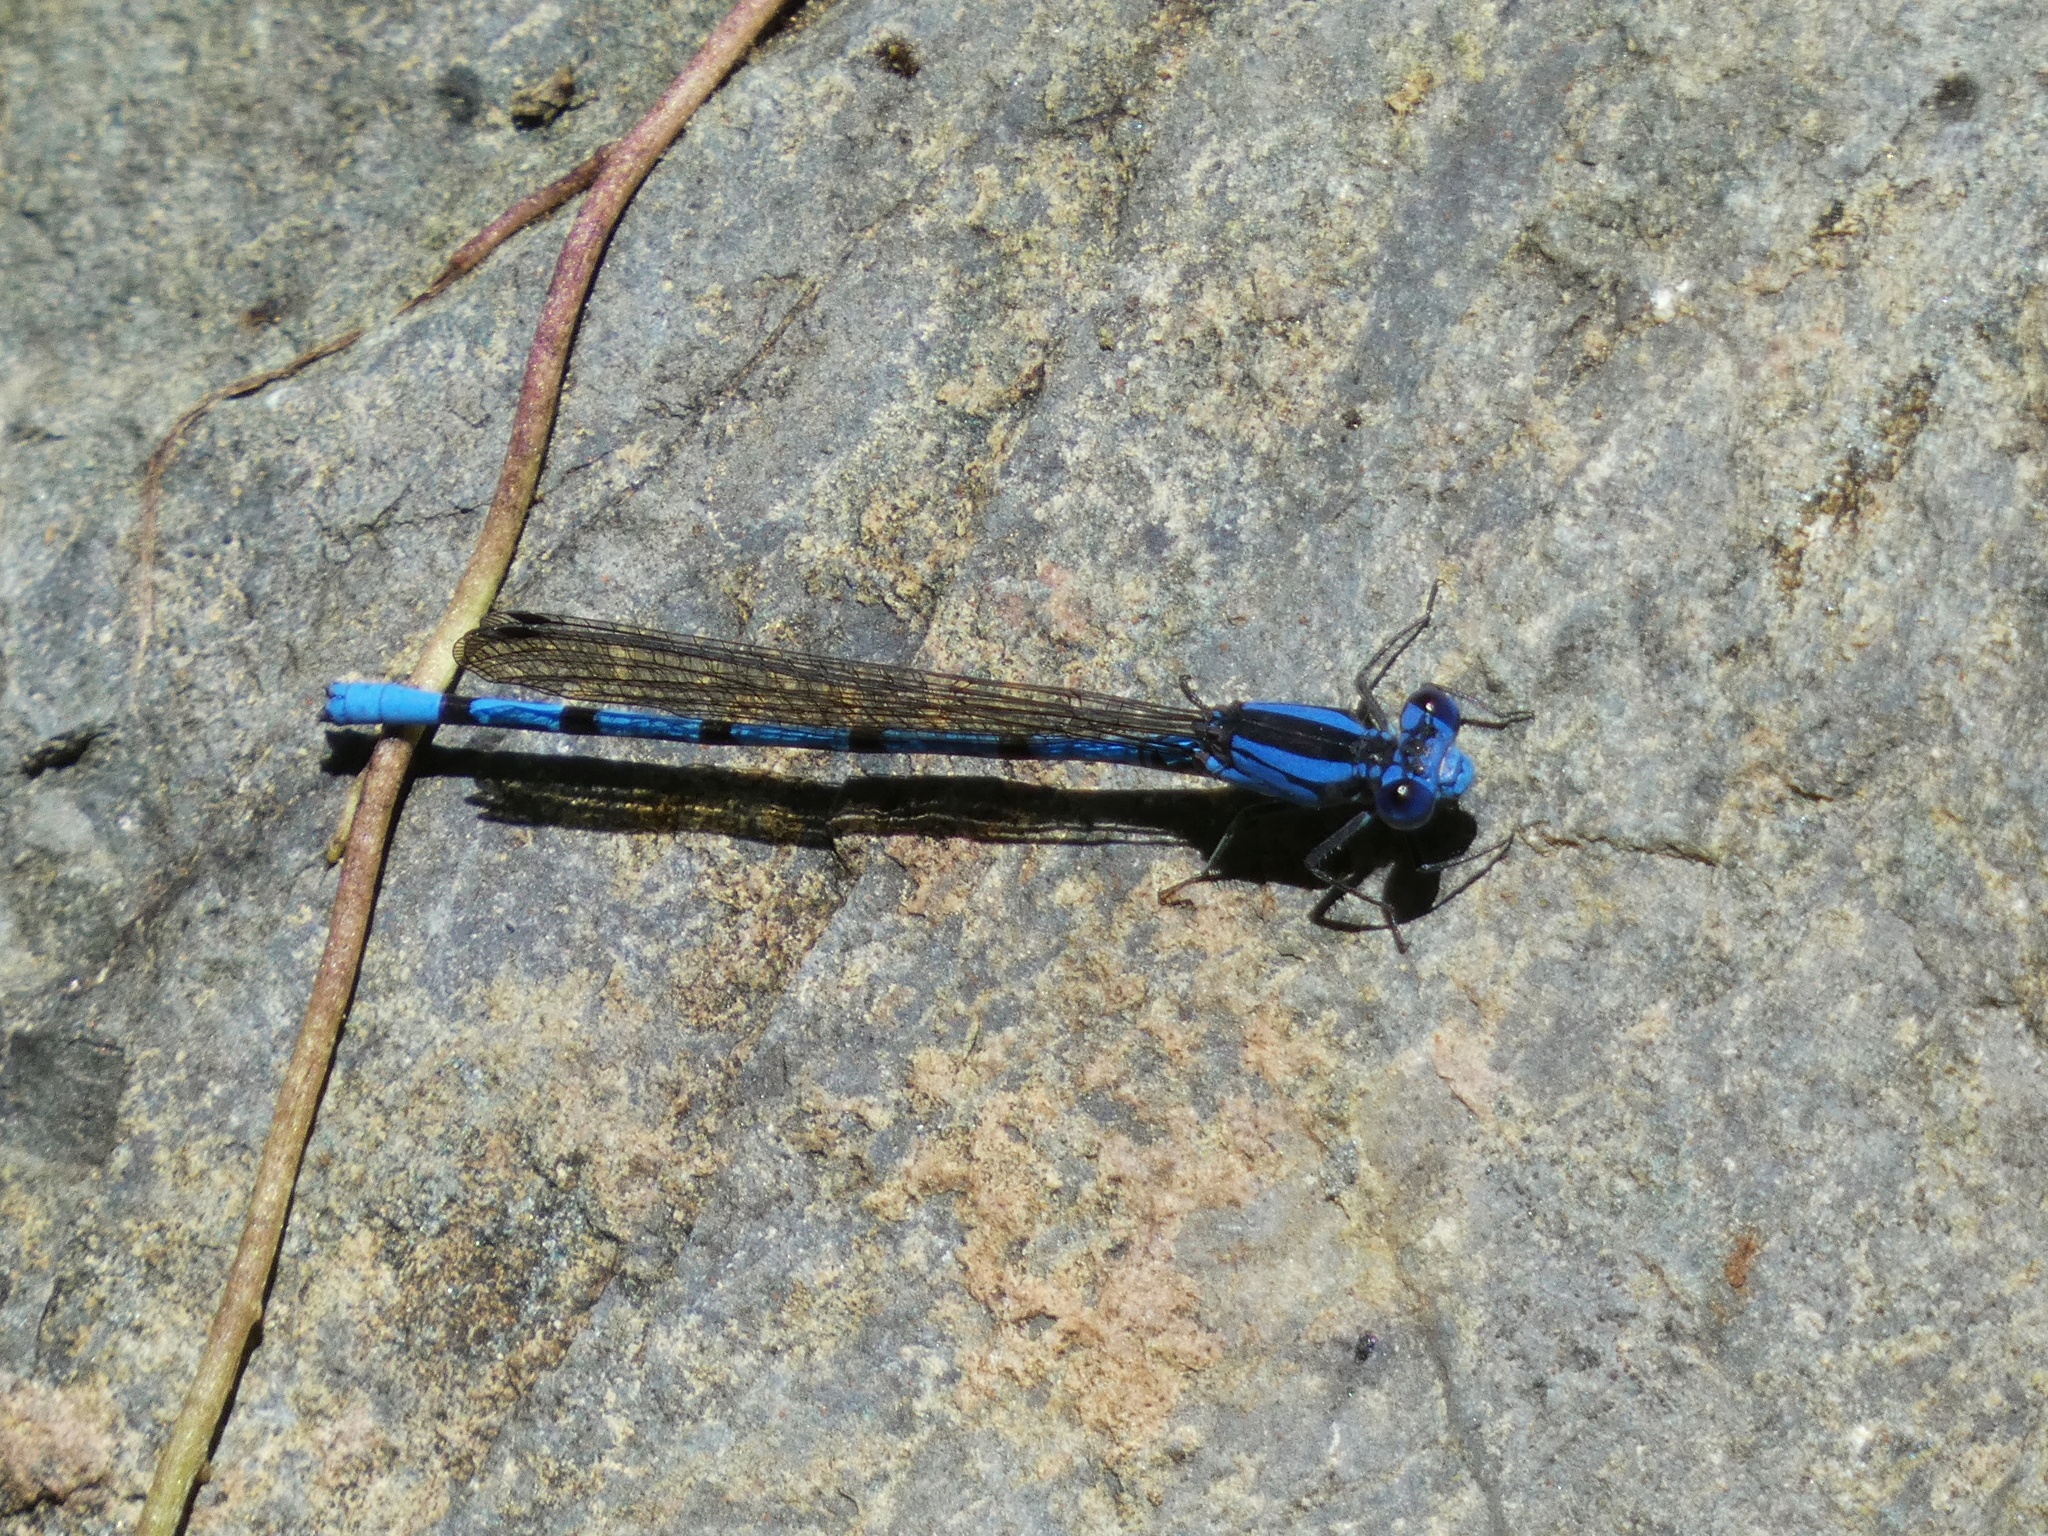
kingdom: Animalia
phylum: Arthropoda
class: Insecta
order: Odonata
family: Coenagrionidae
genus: Argia
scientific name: Argia fissa
